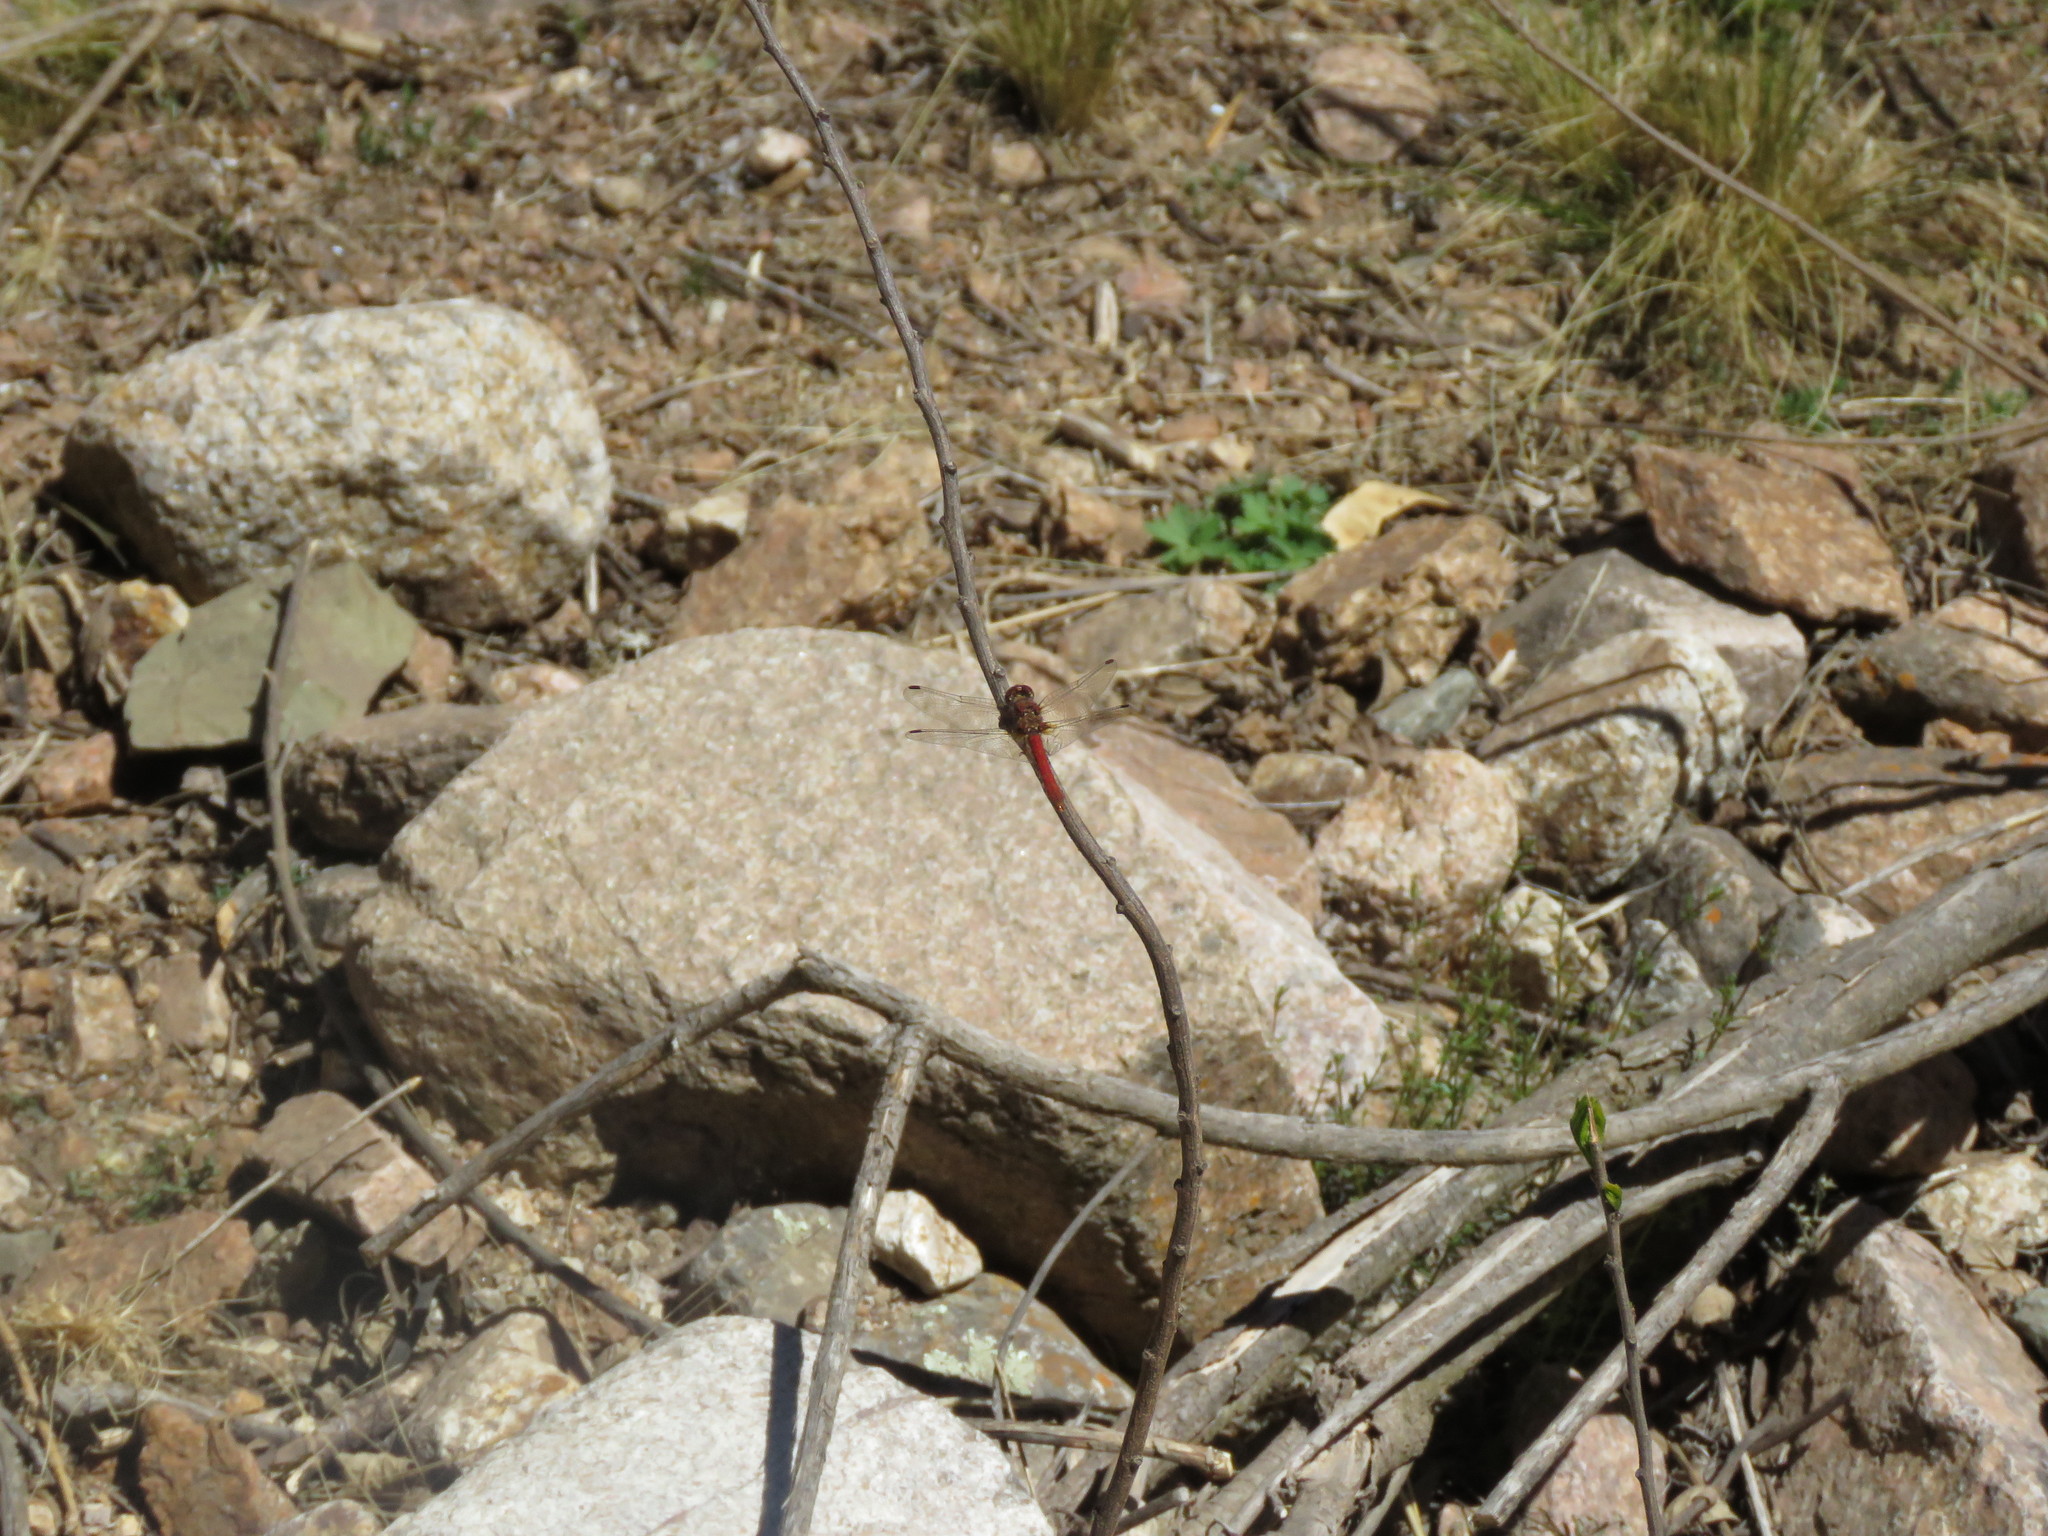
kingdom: Animalia
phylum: Arthropoda
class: Insecta
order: Odonata
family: Libellulidae
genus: Orthemis
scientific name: Orthemis nodiplaga
